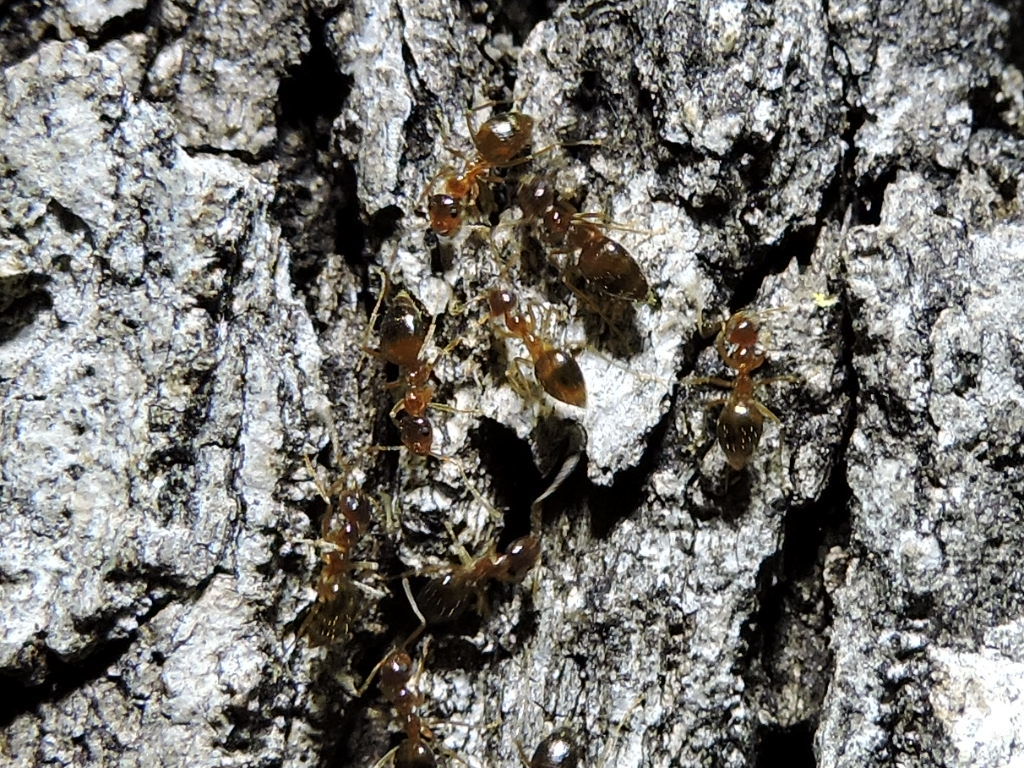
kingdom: Animalia
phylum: Arthropoda
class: Insecta
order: Hymenoptera
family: Formicidae
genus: Prenolepis
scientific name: Prenolepis imparis
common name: Small honey ant
